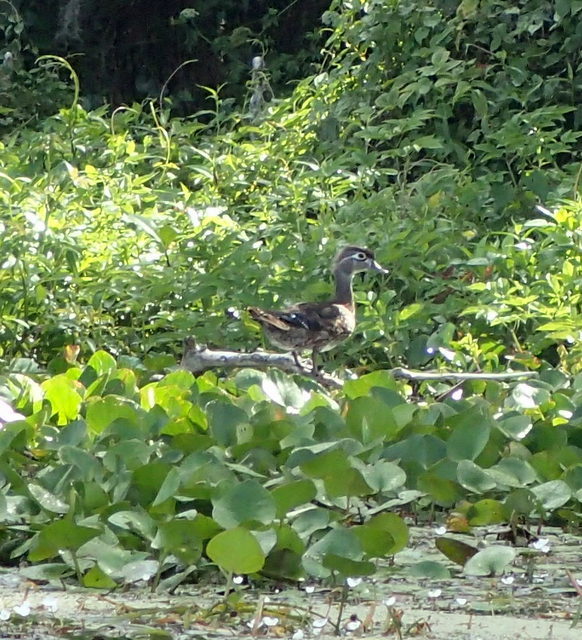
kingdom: Animalia
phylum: Chordata
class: Aves
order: Anseriformes
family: Anatidae
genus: Aix
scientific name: Aix sponsa
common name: Wood duck
